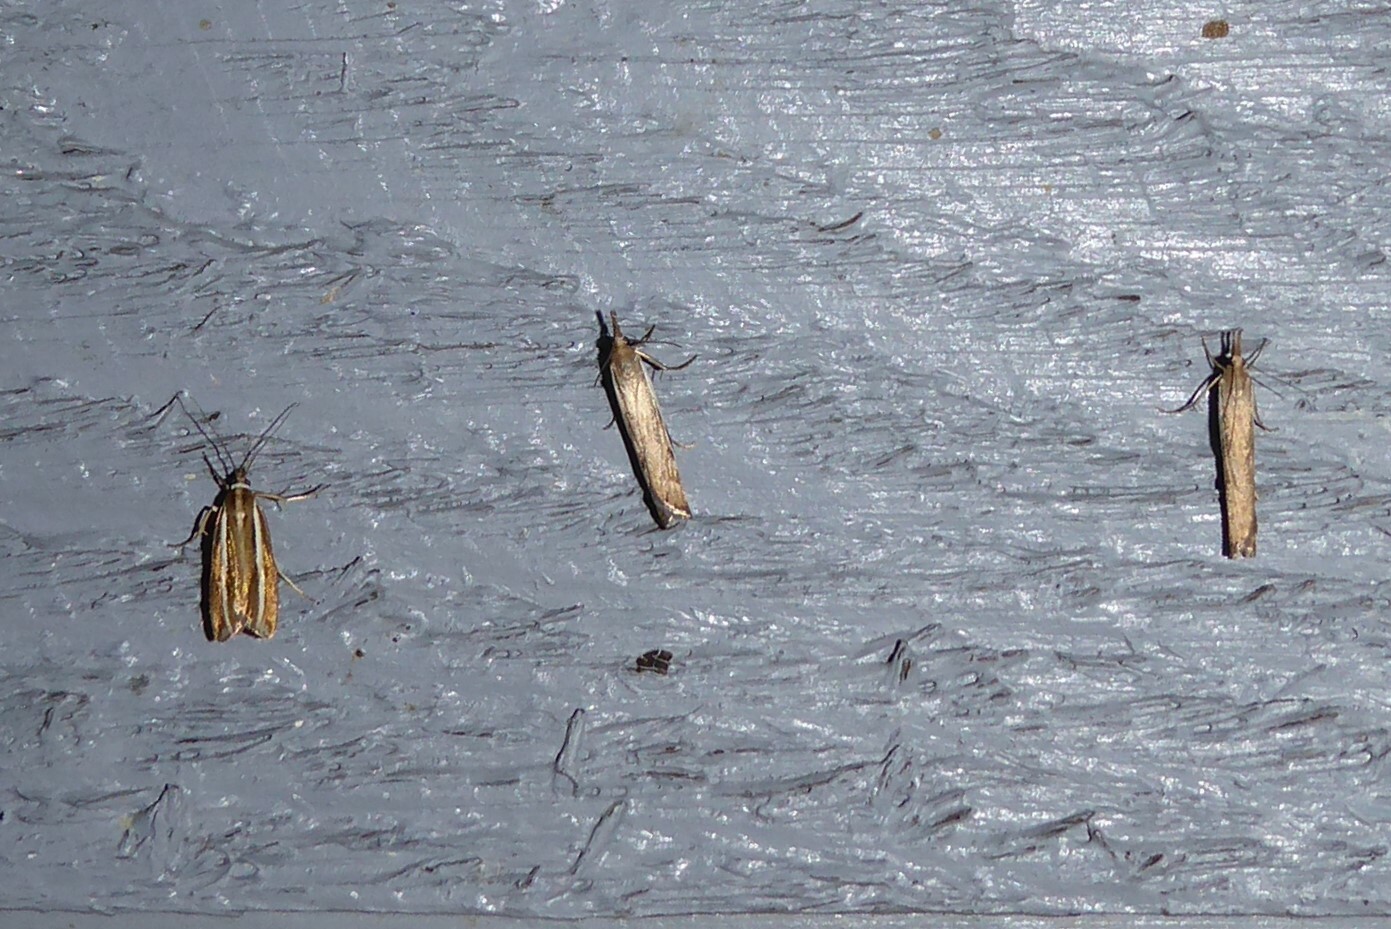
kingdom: Animalia
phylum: Arthropoda
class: Insecta
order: Lepidoptera
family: Crambidae
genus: Orocrambus
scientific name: Orocrambus melitastes
